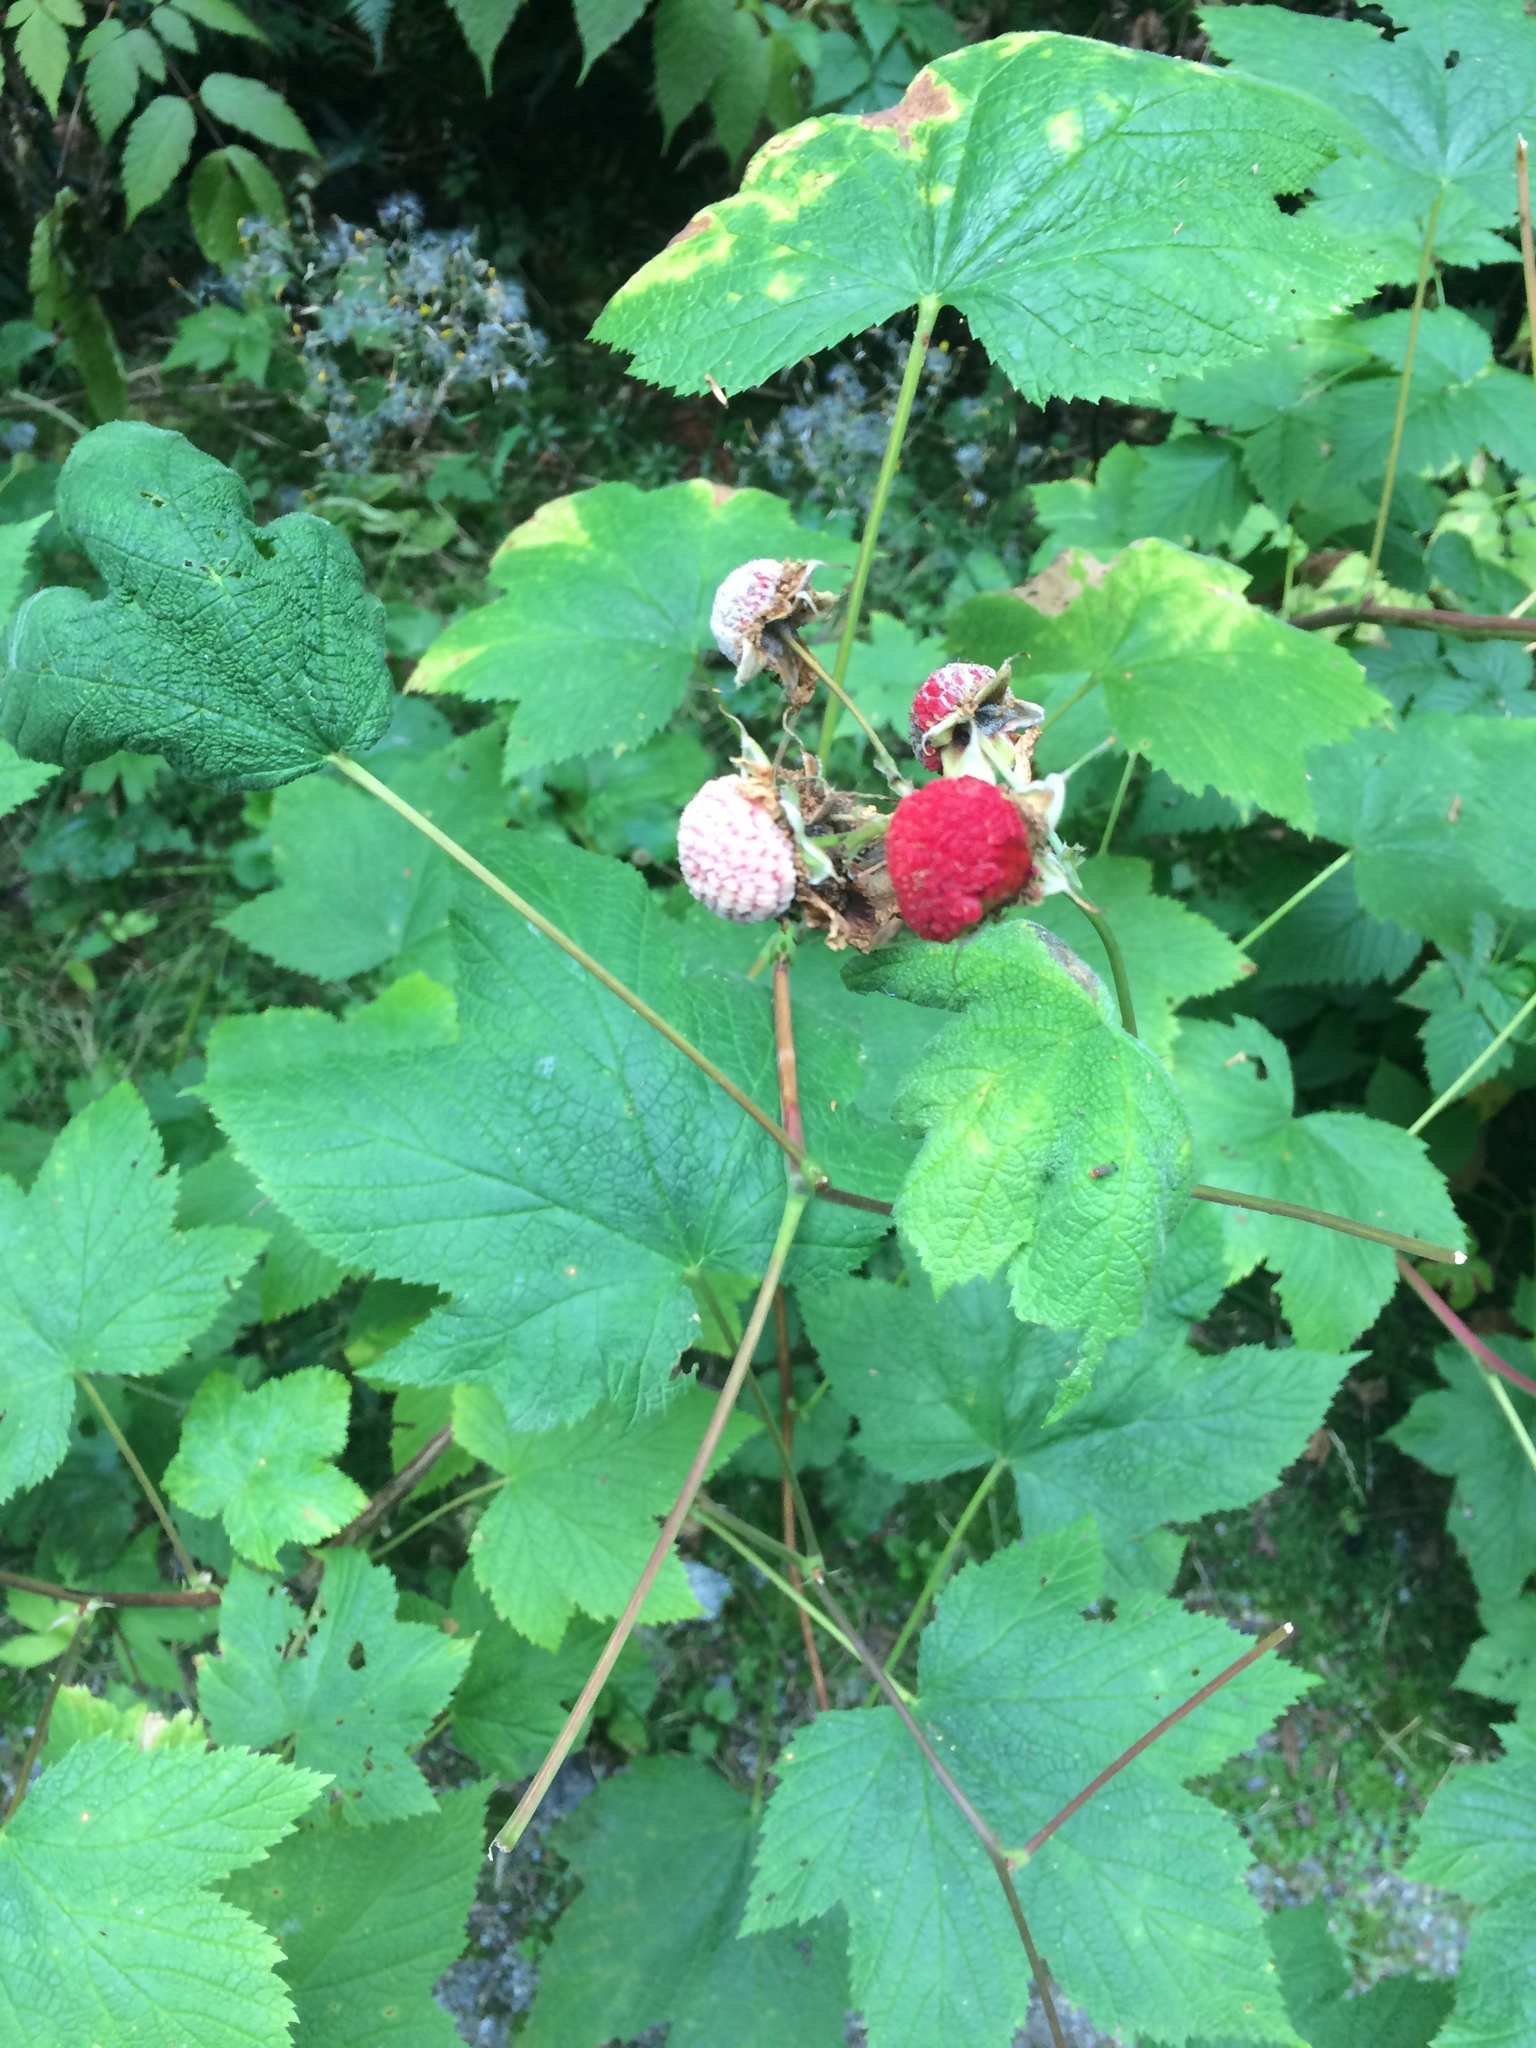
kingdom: Plantae
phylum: Tracheophyta
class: Magnoliopsida
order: Rosales
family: Rosaceae
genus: Rubus
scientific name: Rubus parviflorus
